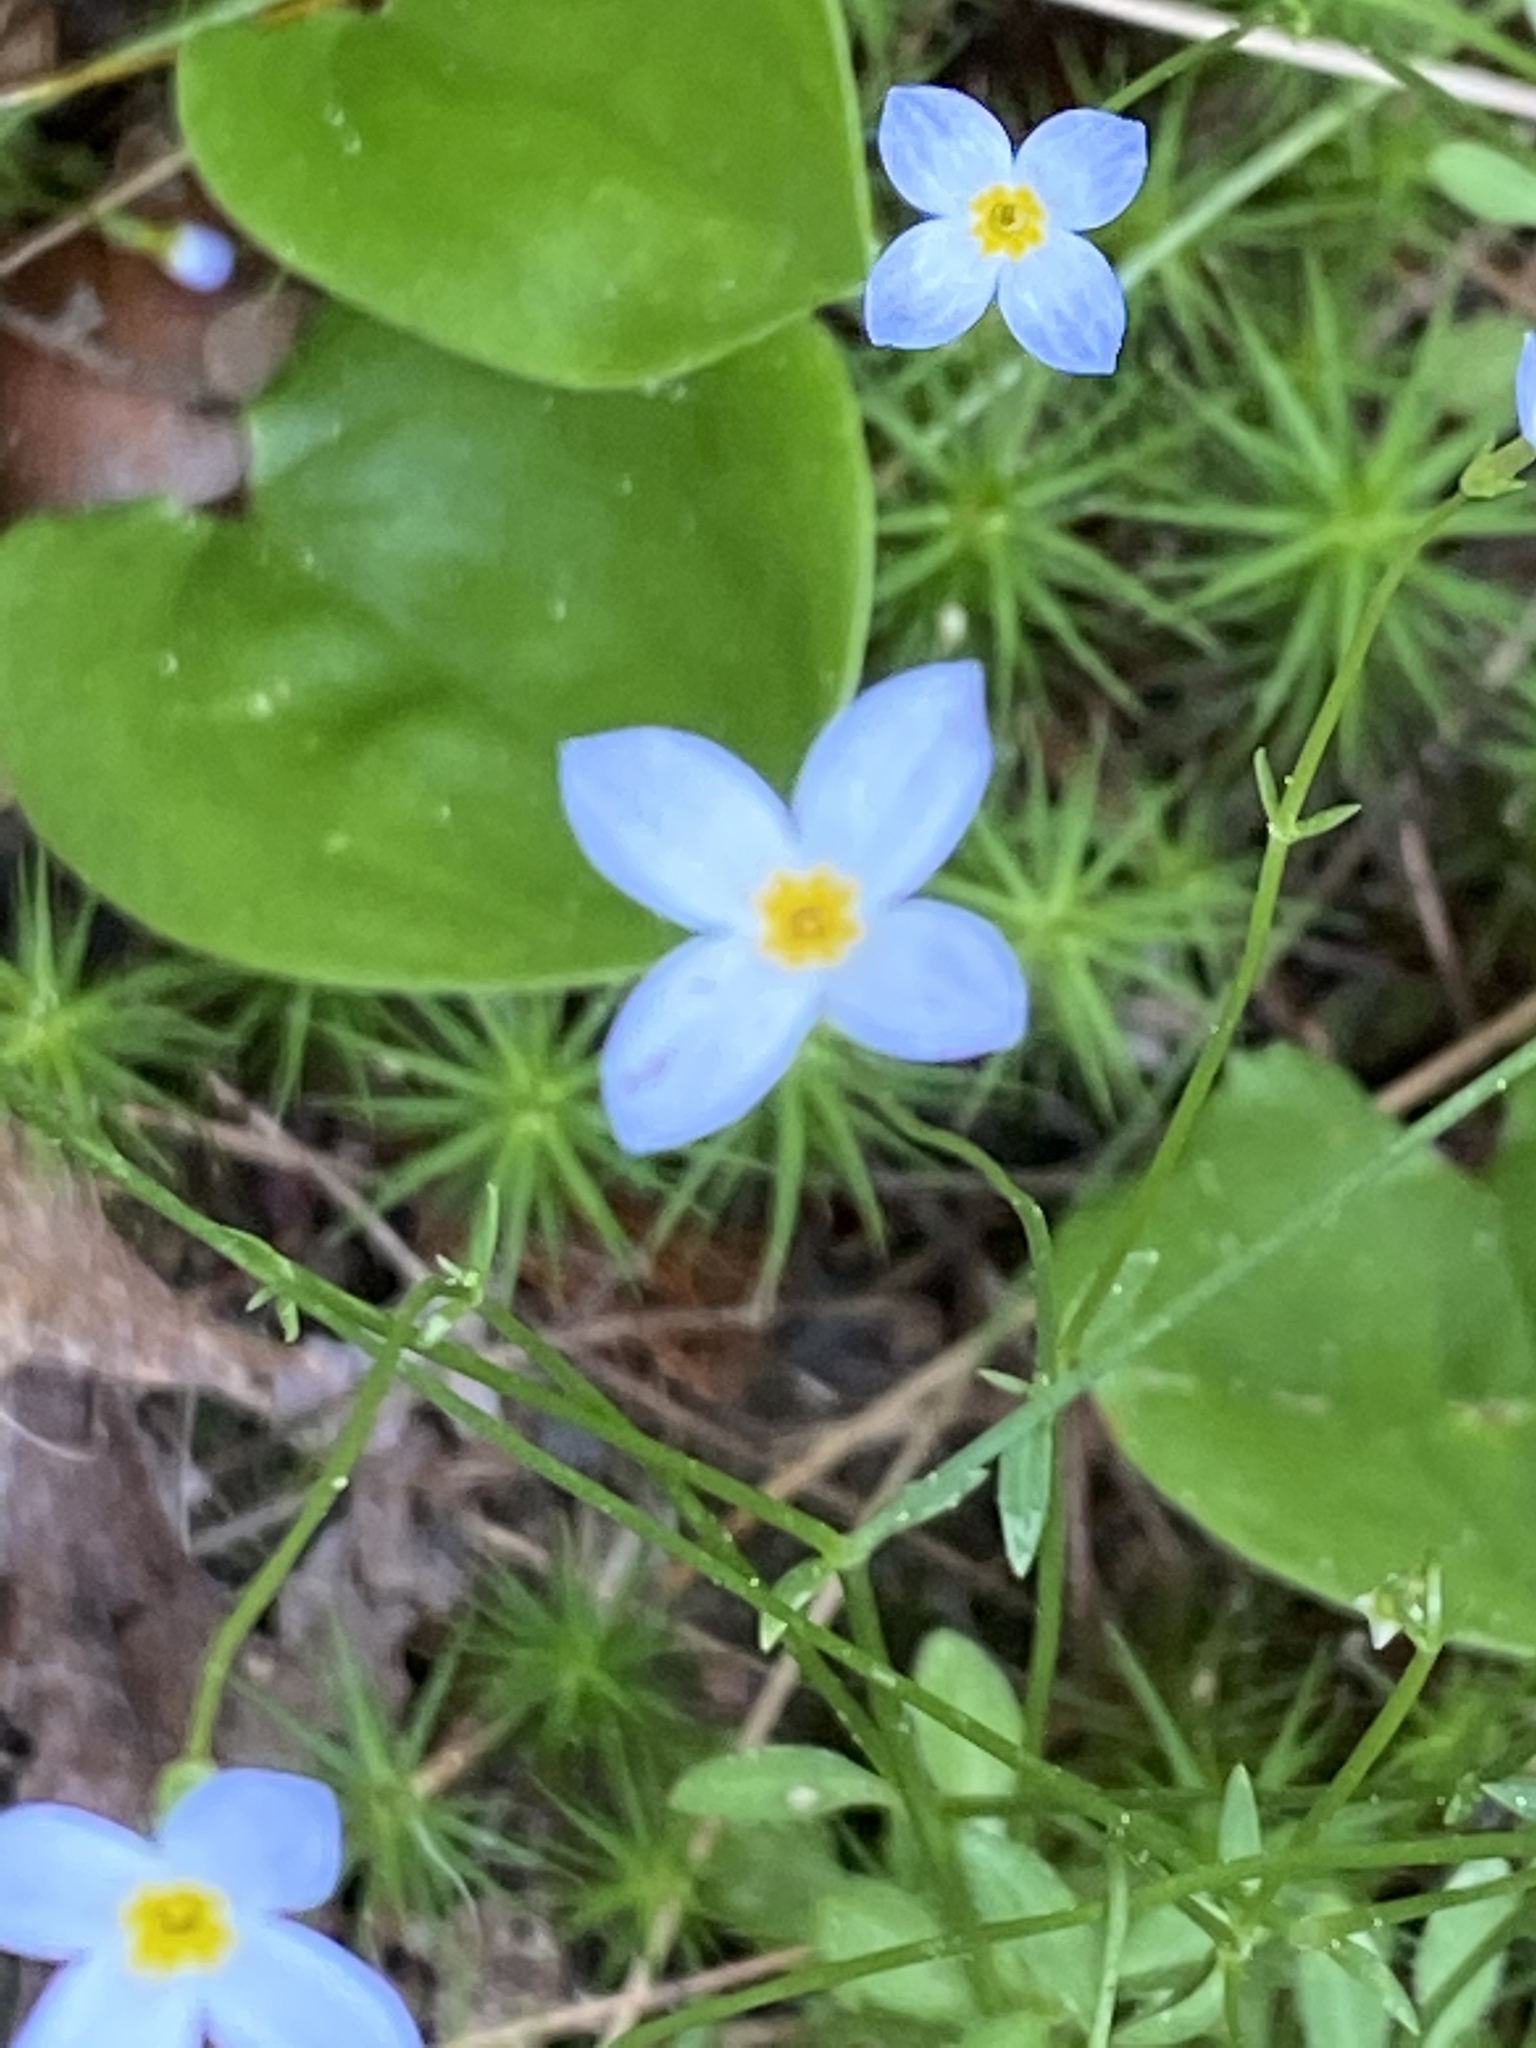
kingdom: Plantae
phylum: Tracheophyta
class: Magnoliopsida
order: Gentianales
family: Rubiaceae
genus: Houstonia
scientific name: Houstonia caerulea
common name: Bluets
